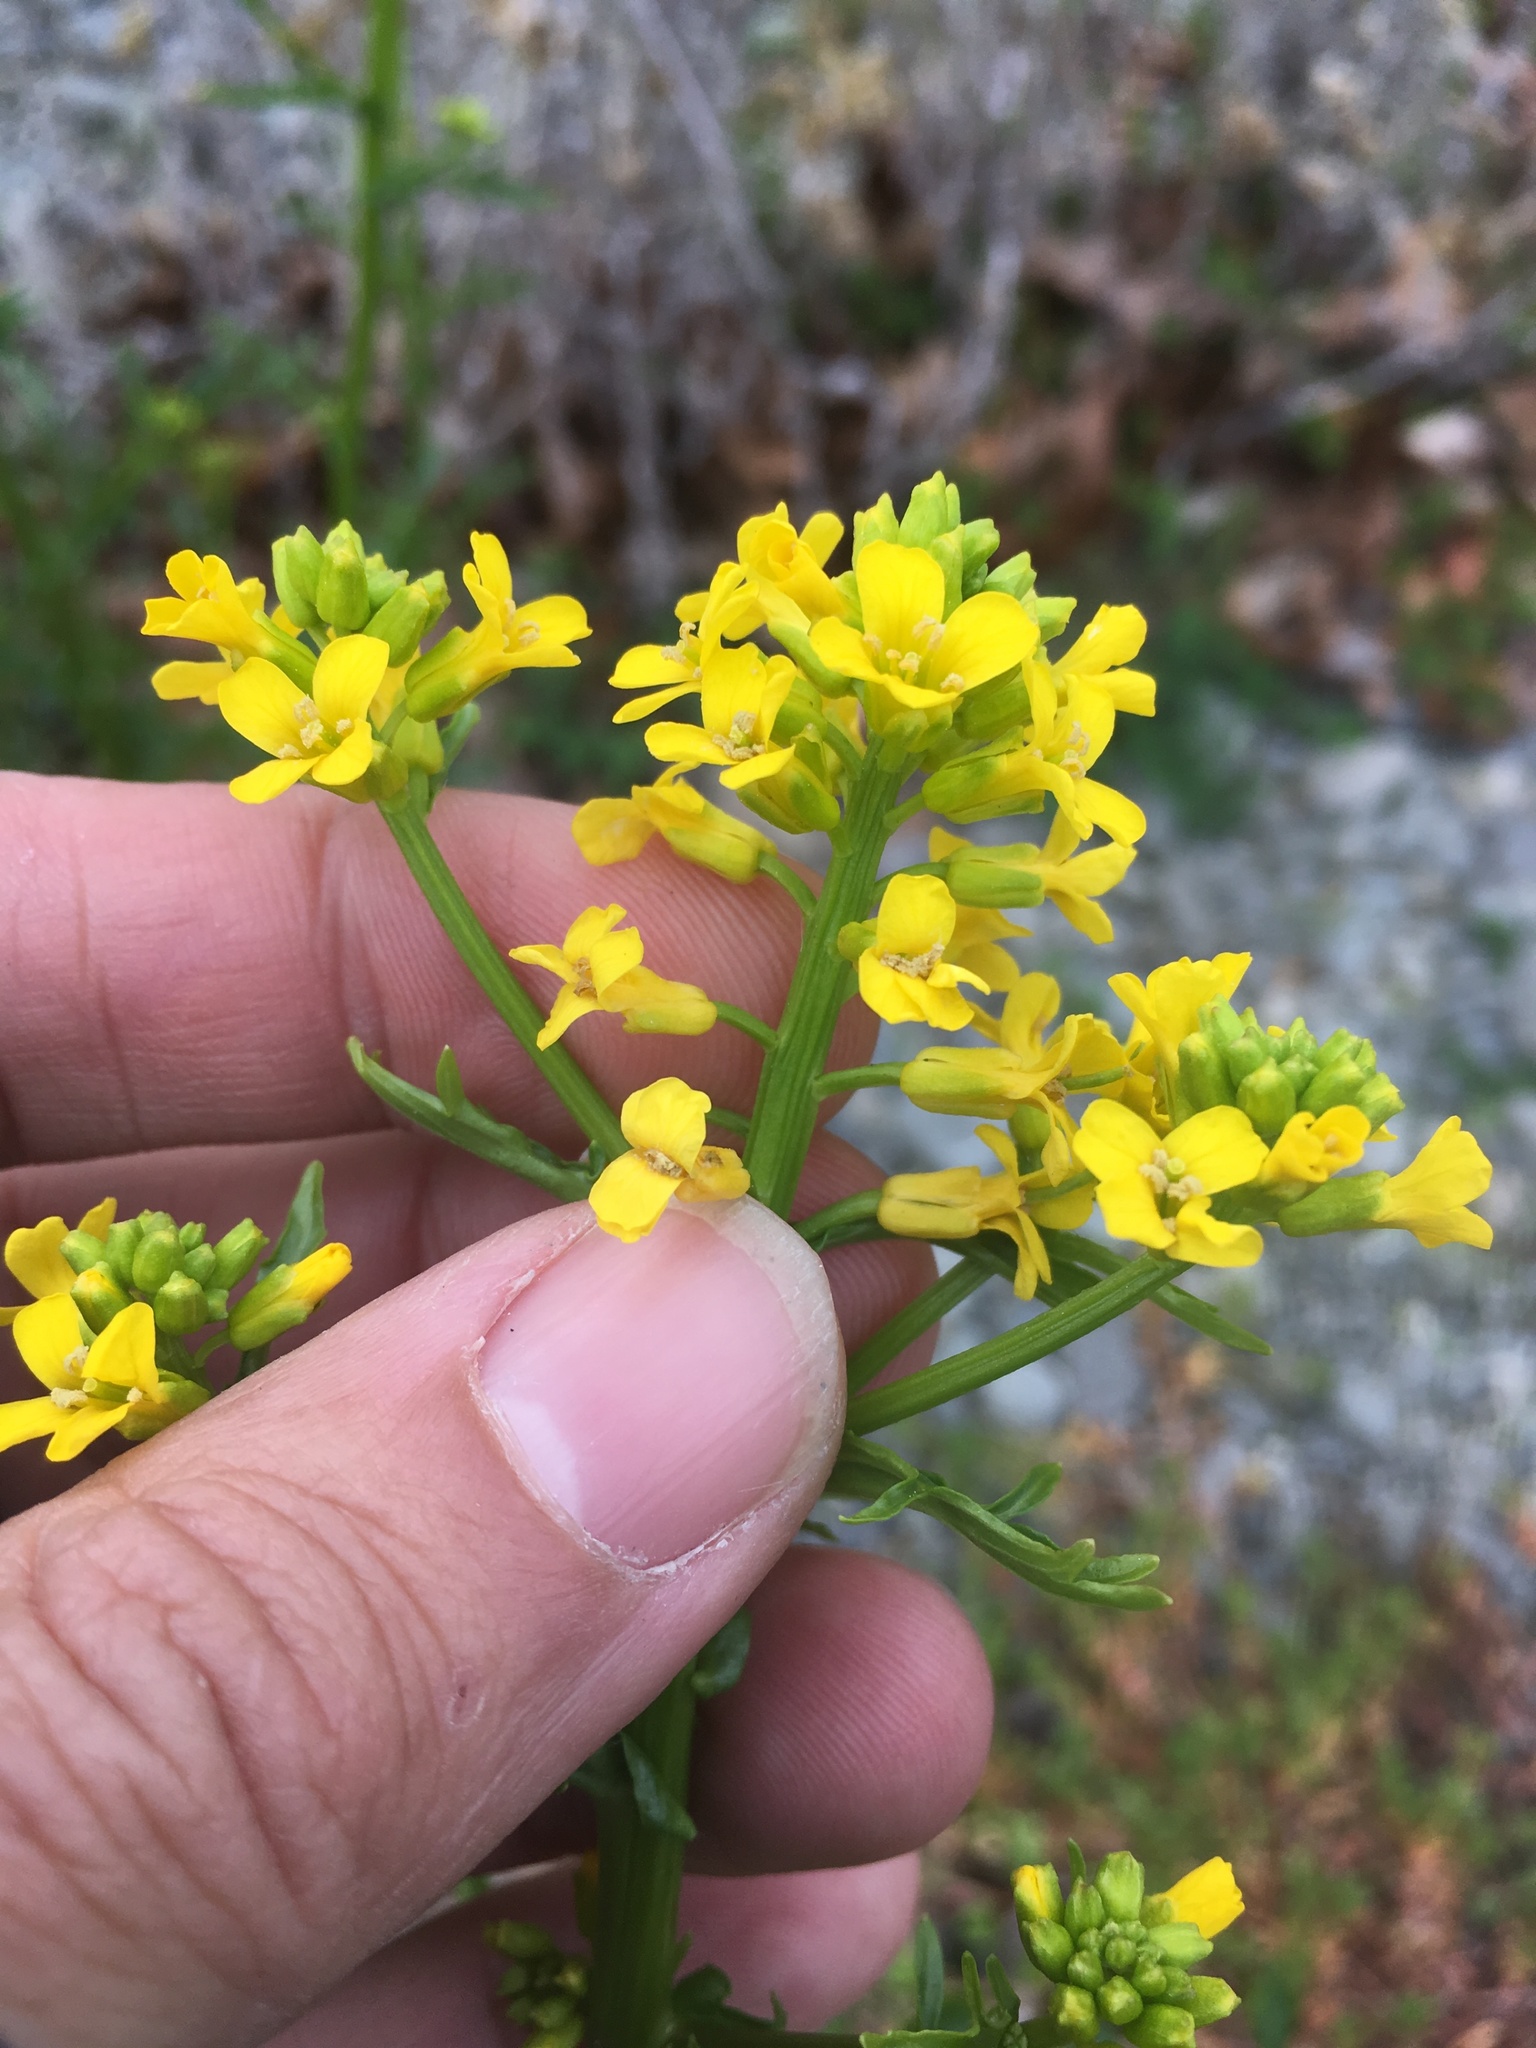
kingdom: Plantae
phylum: Tracheophyta
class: Magnoliopsida
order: Brassicales
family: Brassicaceae
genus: Barbarea
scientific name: Barbarea verna
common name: American cress
